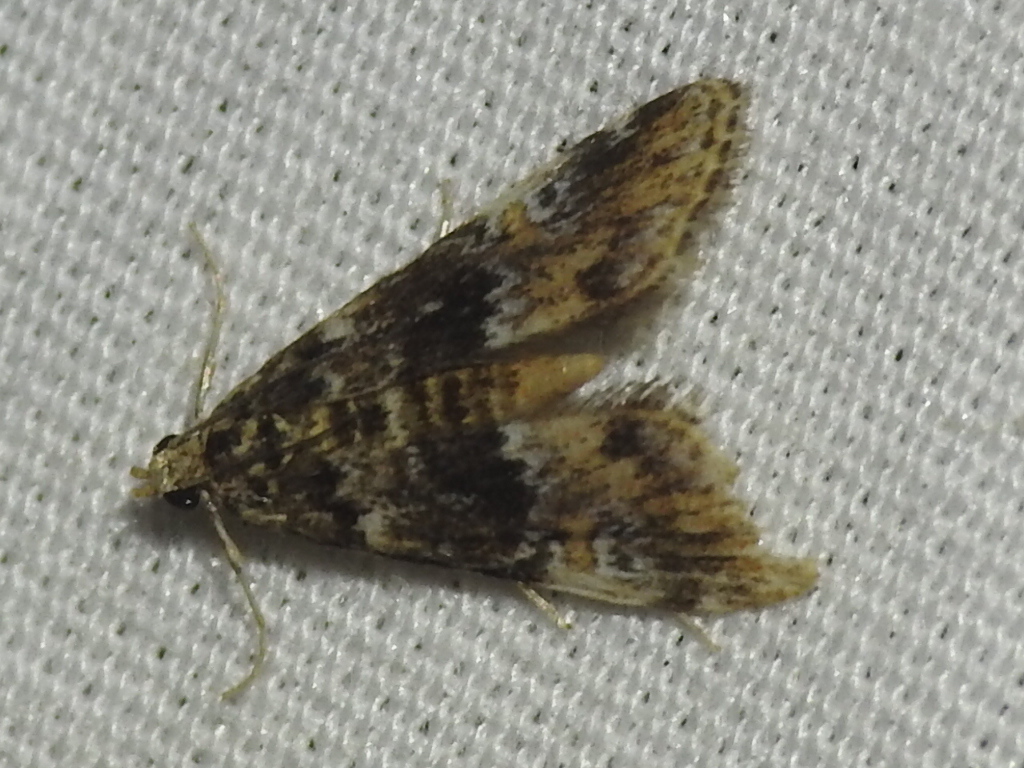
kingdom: Animalia
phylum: Arthropoda
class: Insecta
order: Lepidoptera
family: Crambidae
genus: Elophila
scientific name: Elophila obliteralis
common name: Waterlily leafcutter moth
